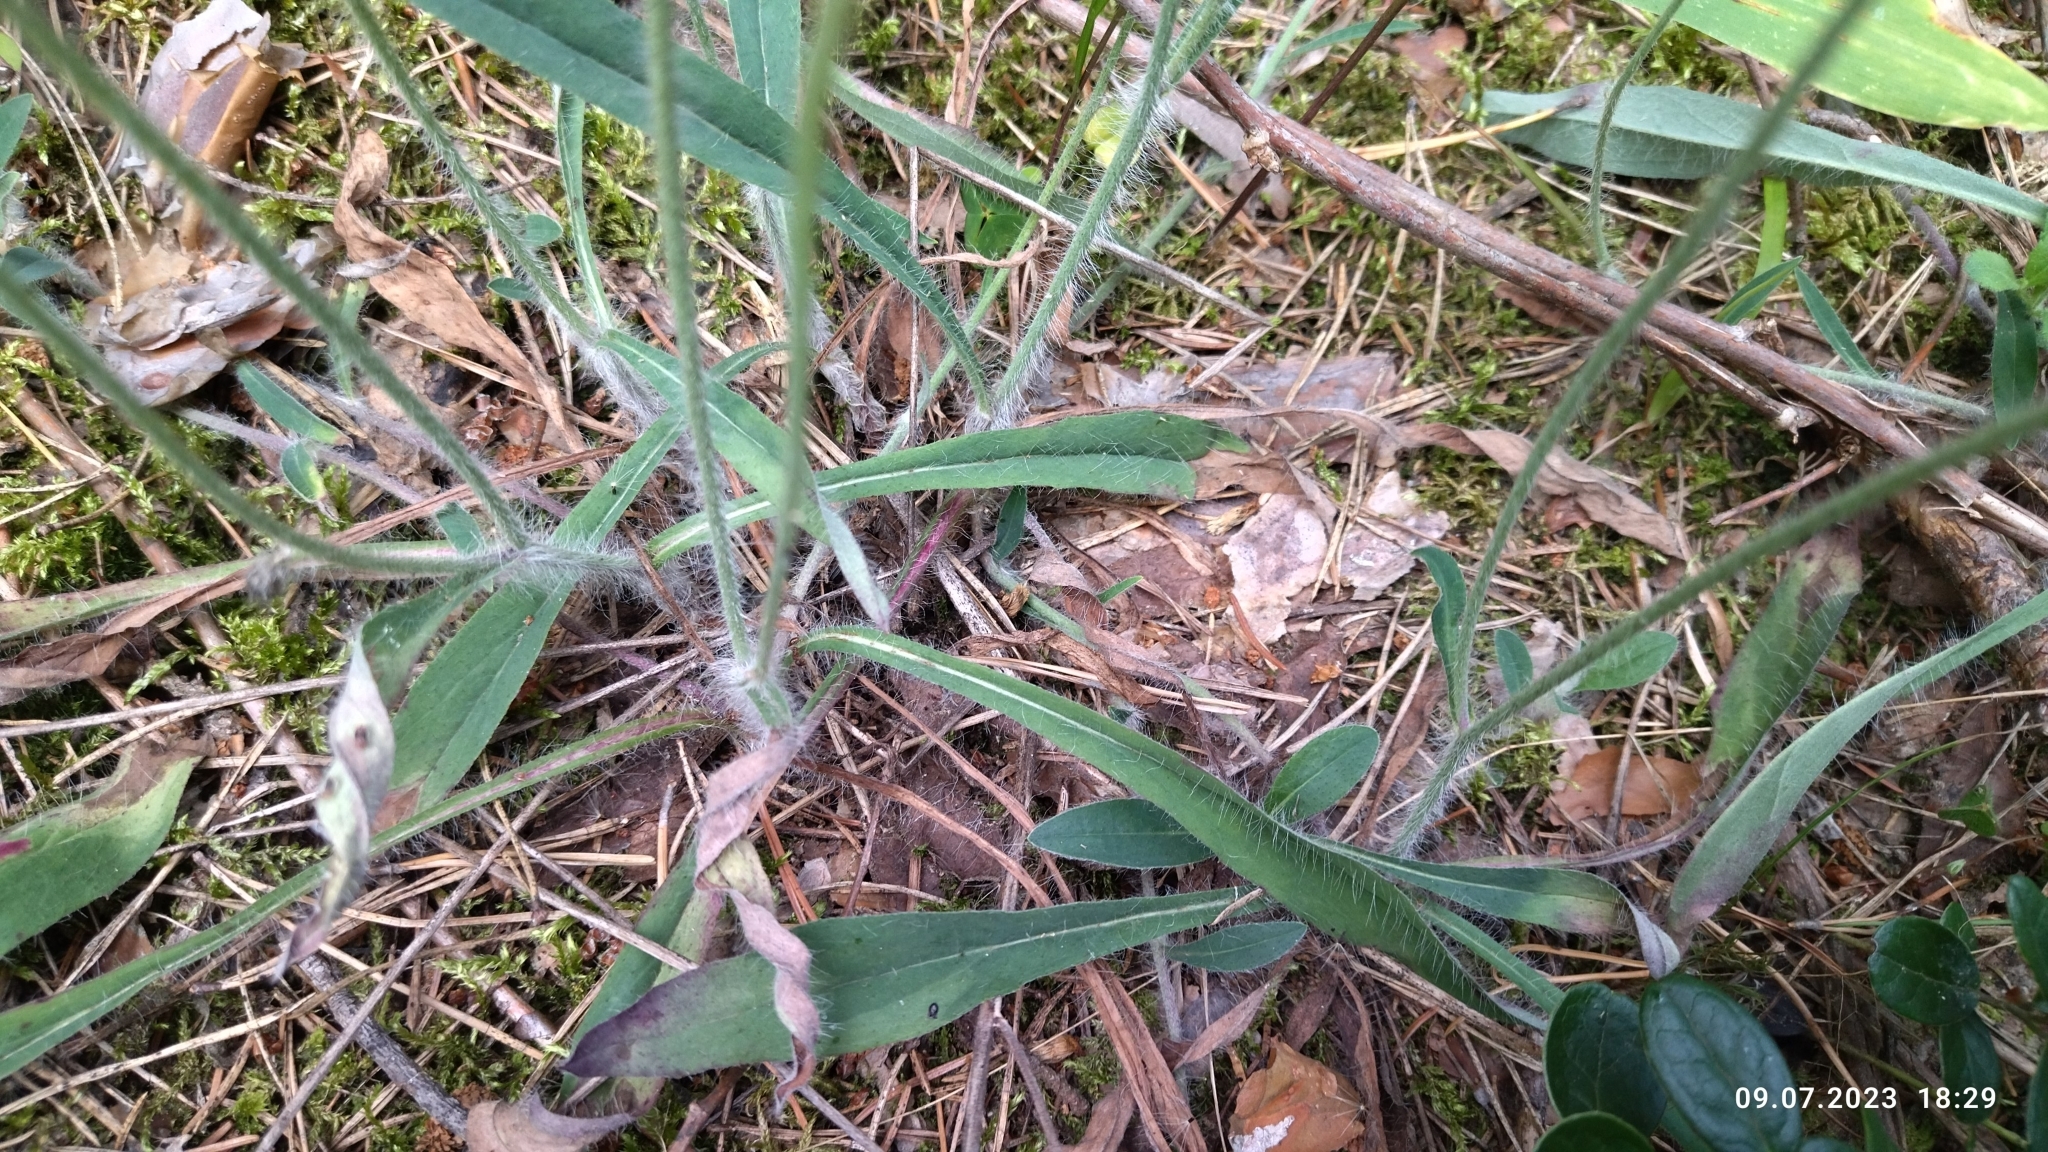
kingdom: Plantae
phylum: Tracheophyta
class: Magnoliopsida
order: Asterales
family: Asteraceae
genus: Pilosella
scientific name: Pilosella officinarum
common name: Mouse-ear hawkweed
